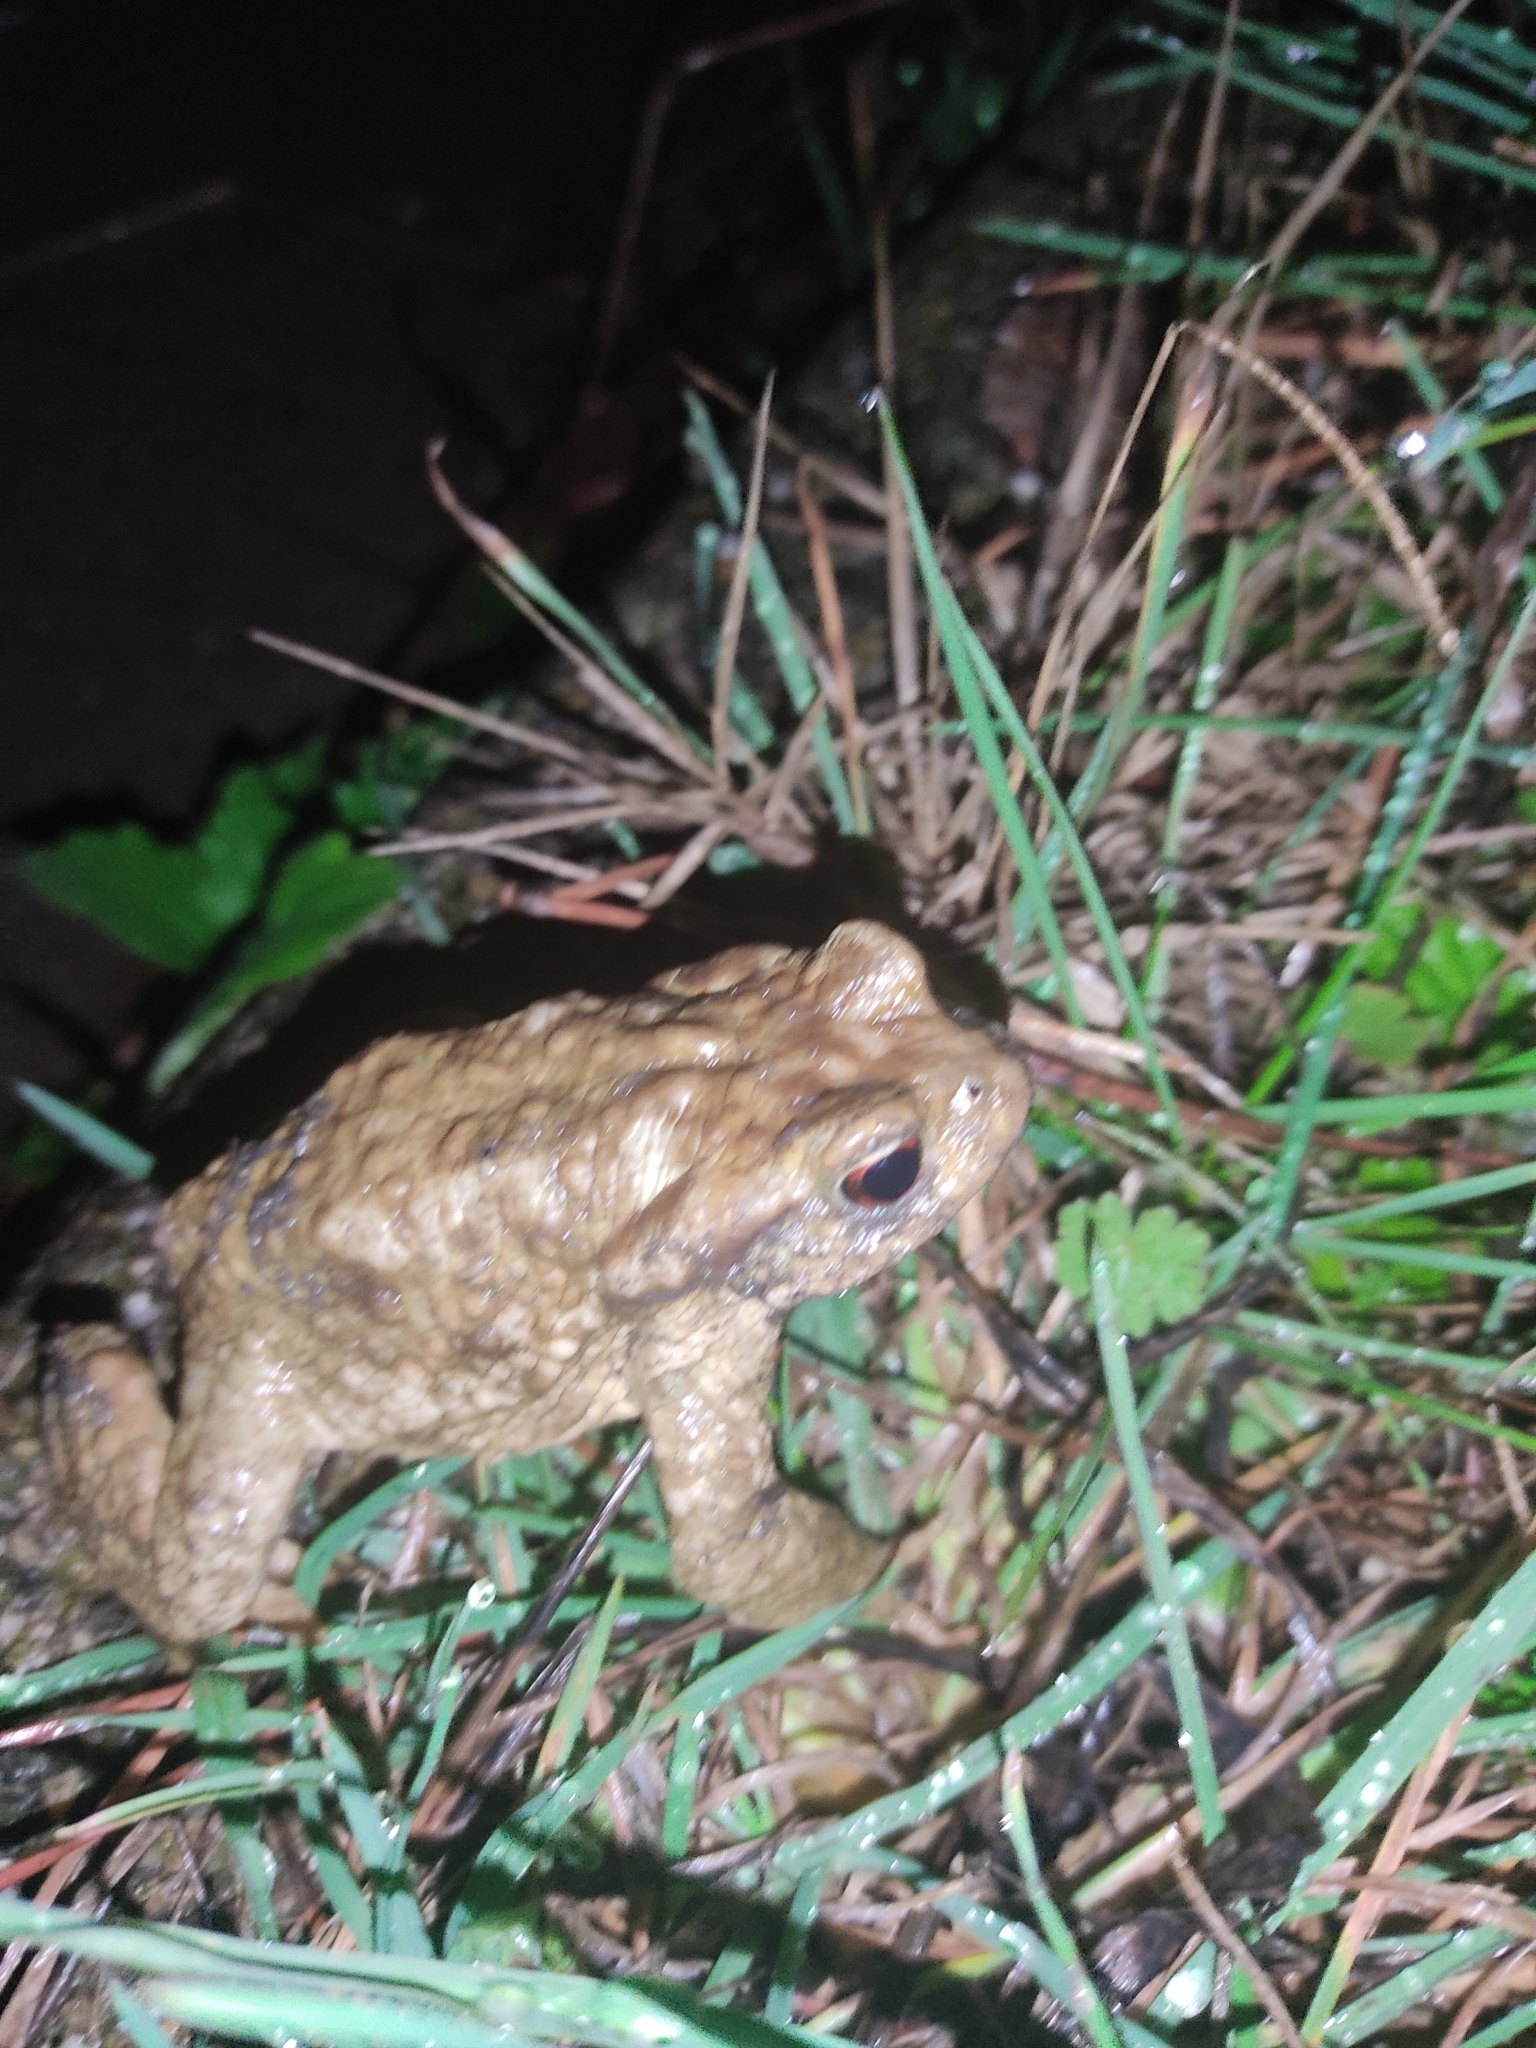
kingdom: Animalia
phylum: Chordata
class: Amphibia
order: Anura
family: Bufonidae
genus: Bufo
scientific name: Bufo spinosus
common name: Western common toad
